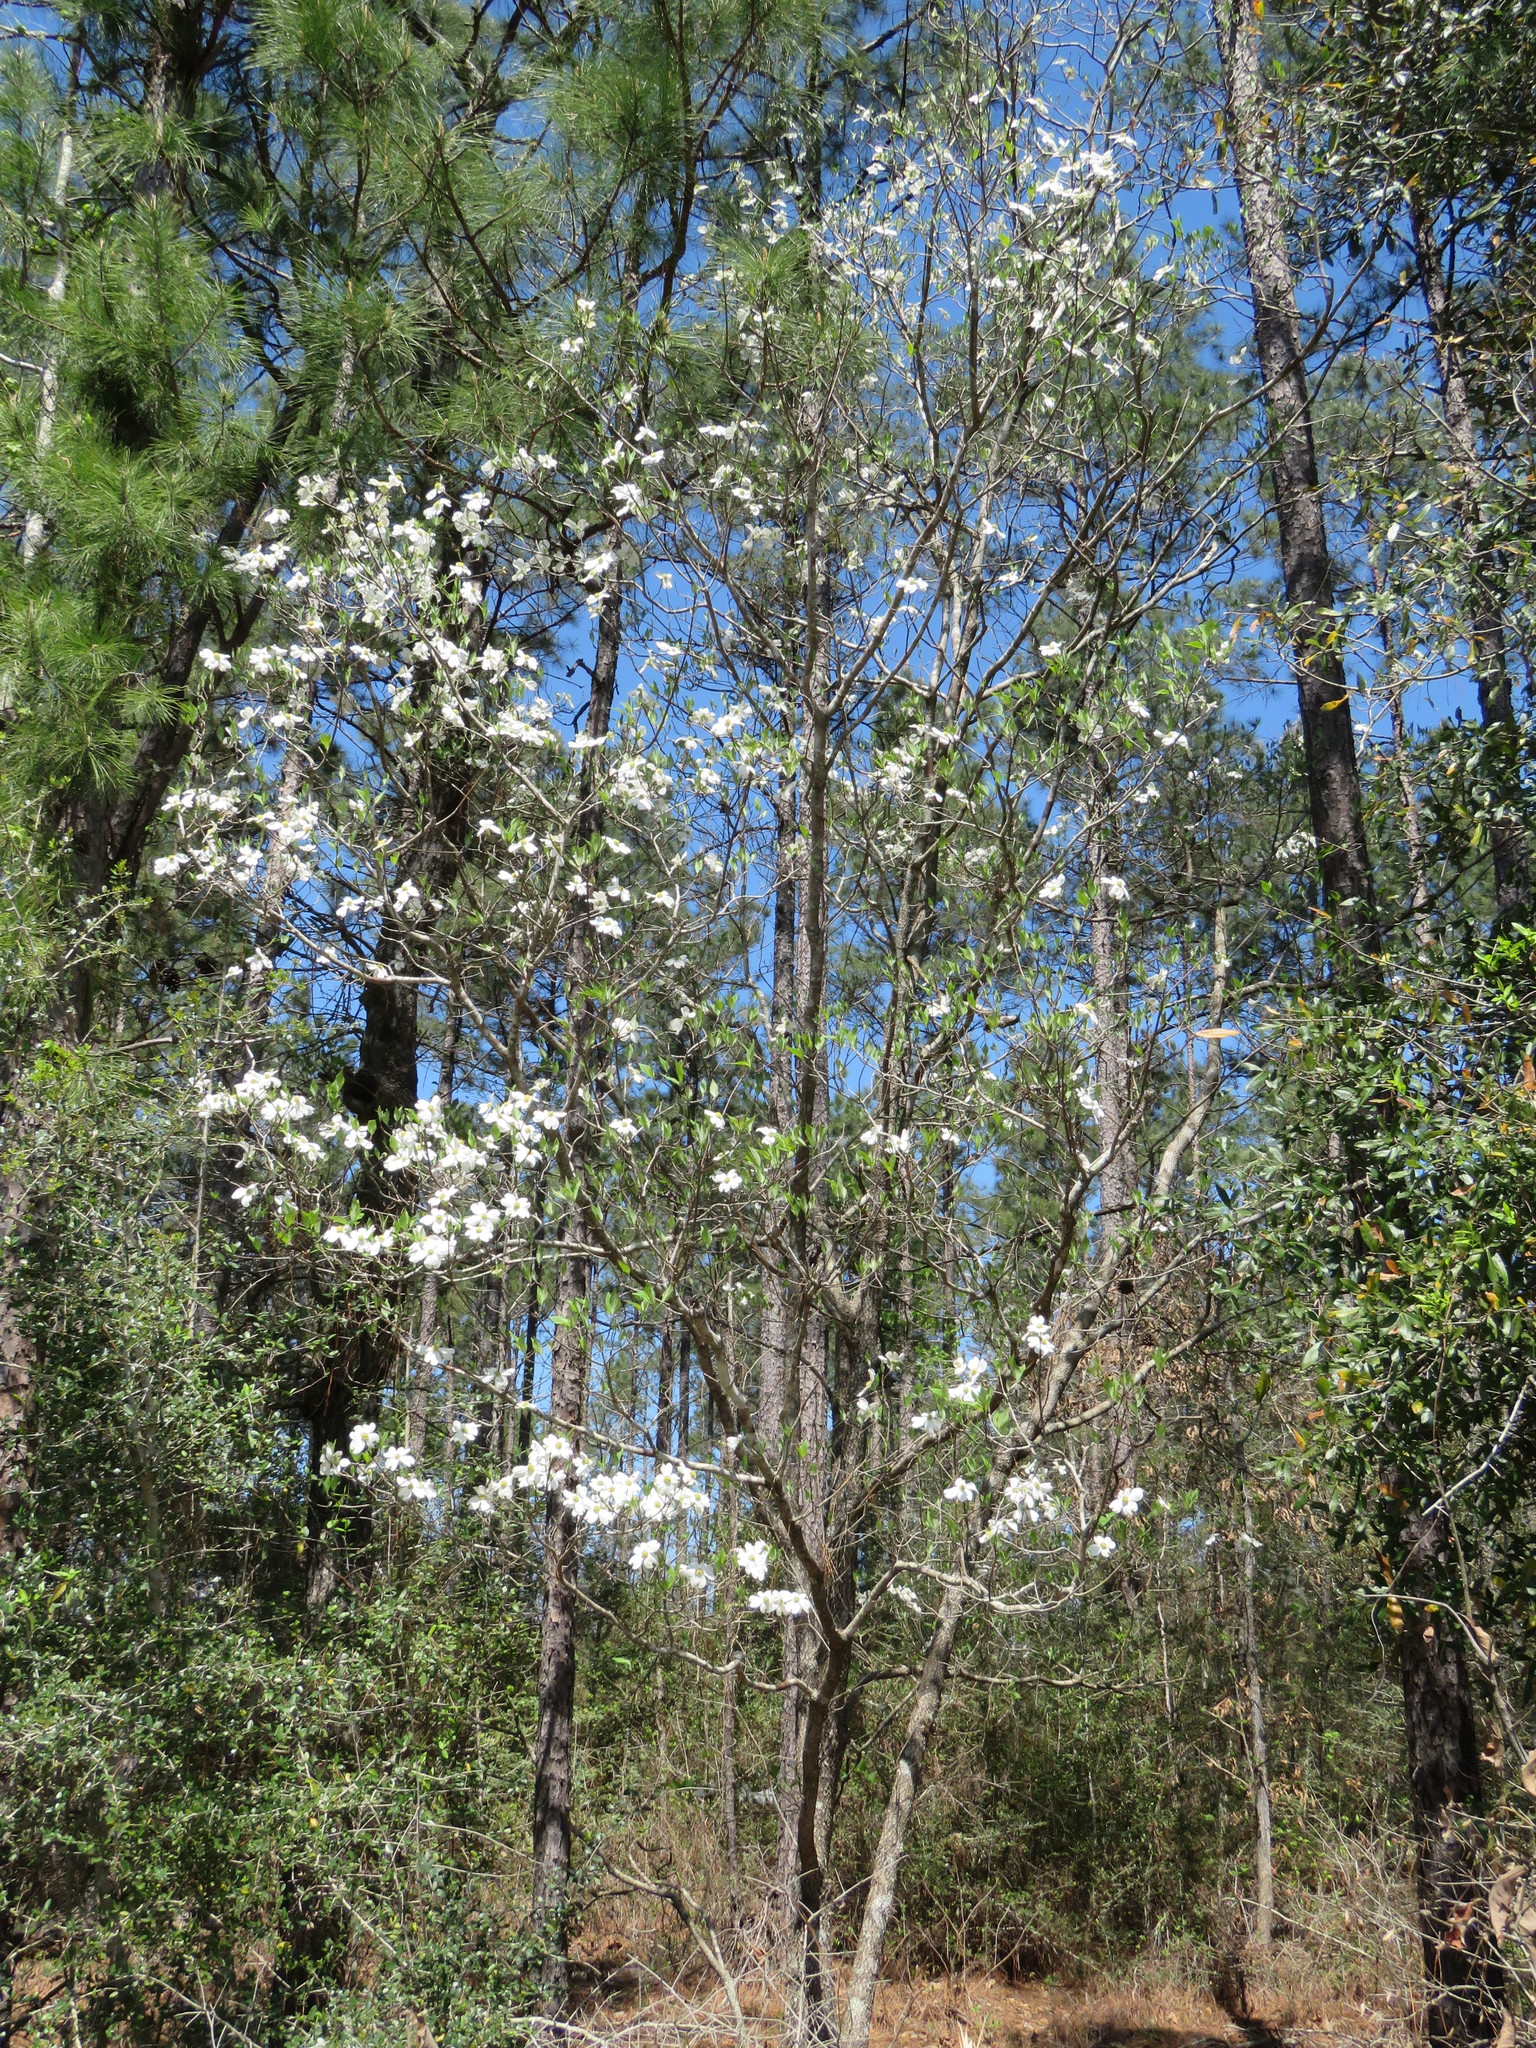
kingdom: Plantae
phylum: Tracheophyta
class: Magnoliopsida
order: Cornales
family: Cornaceae
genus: Cornus
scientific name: Cornus florida
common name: Flowering dogwood
